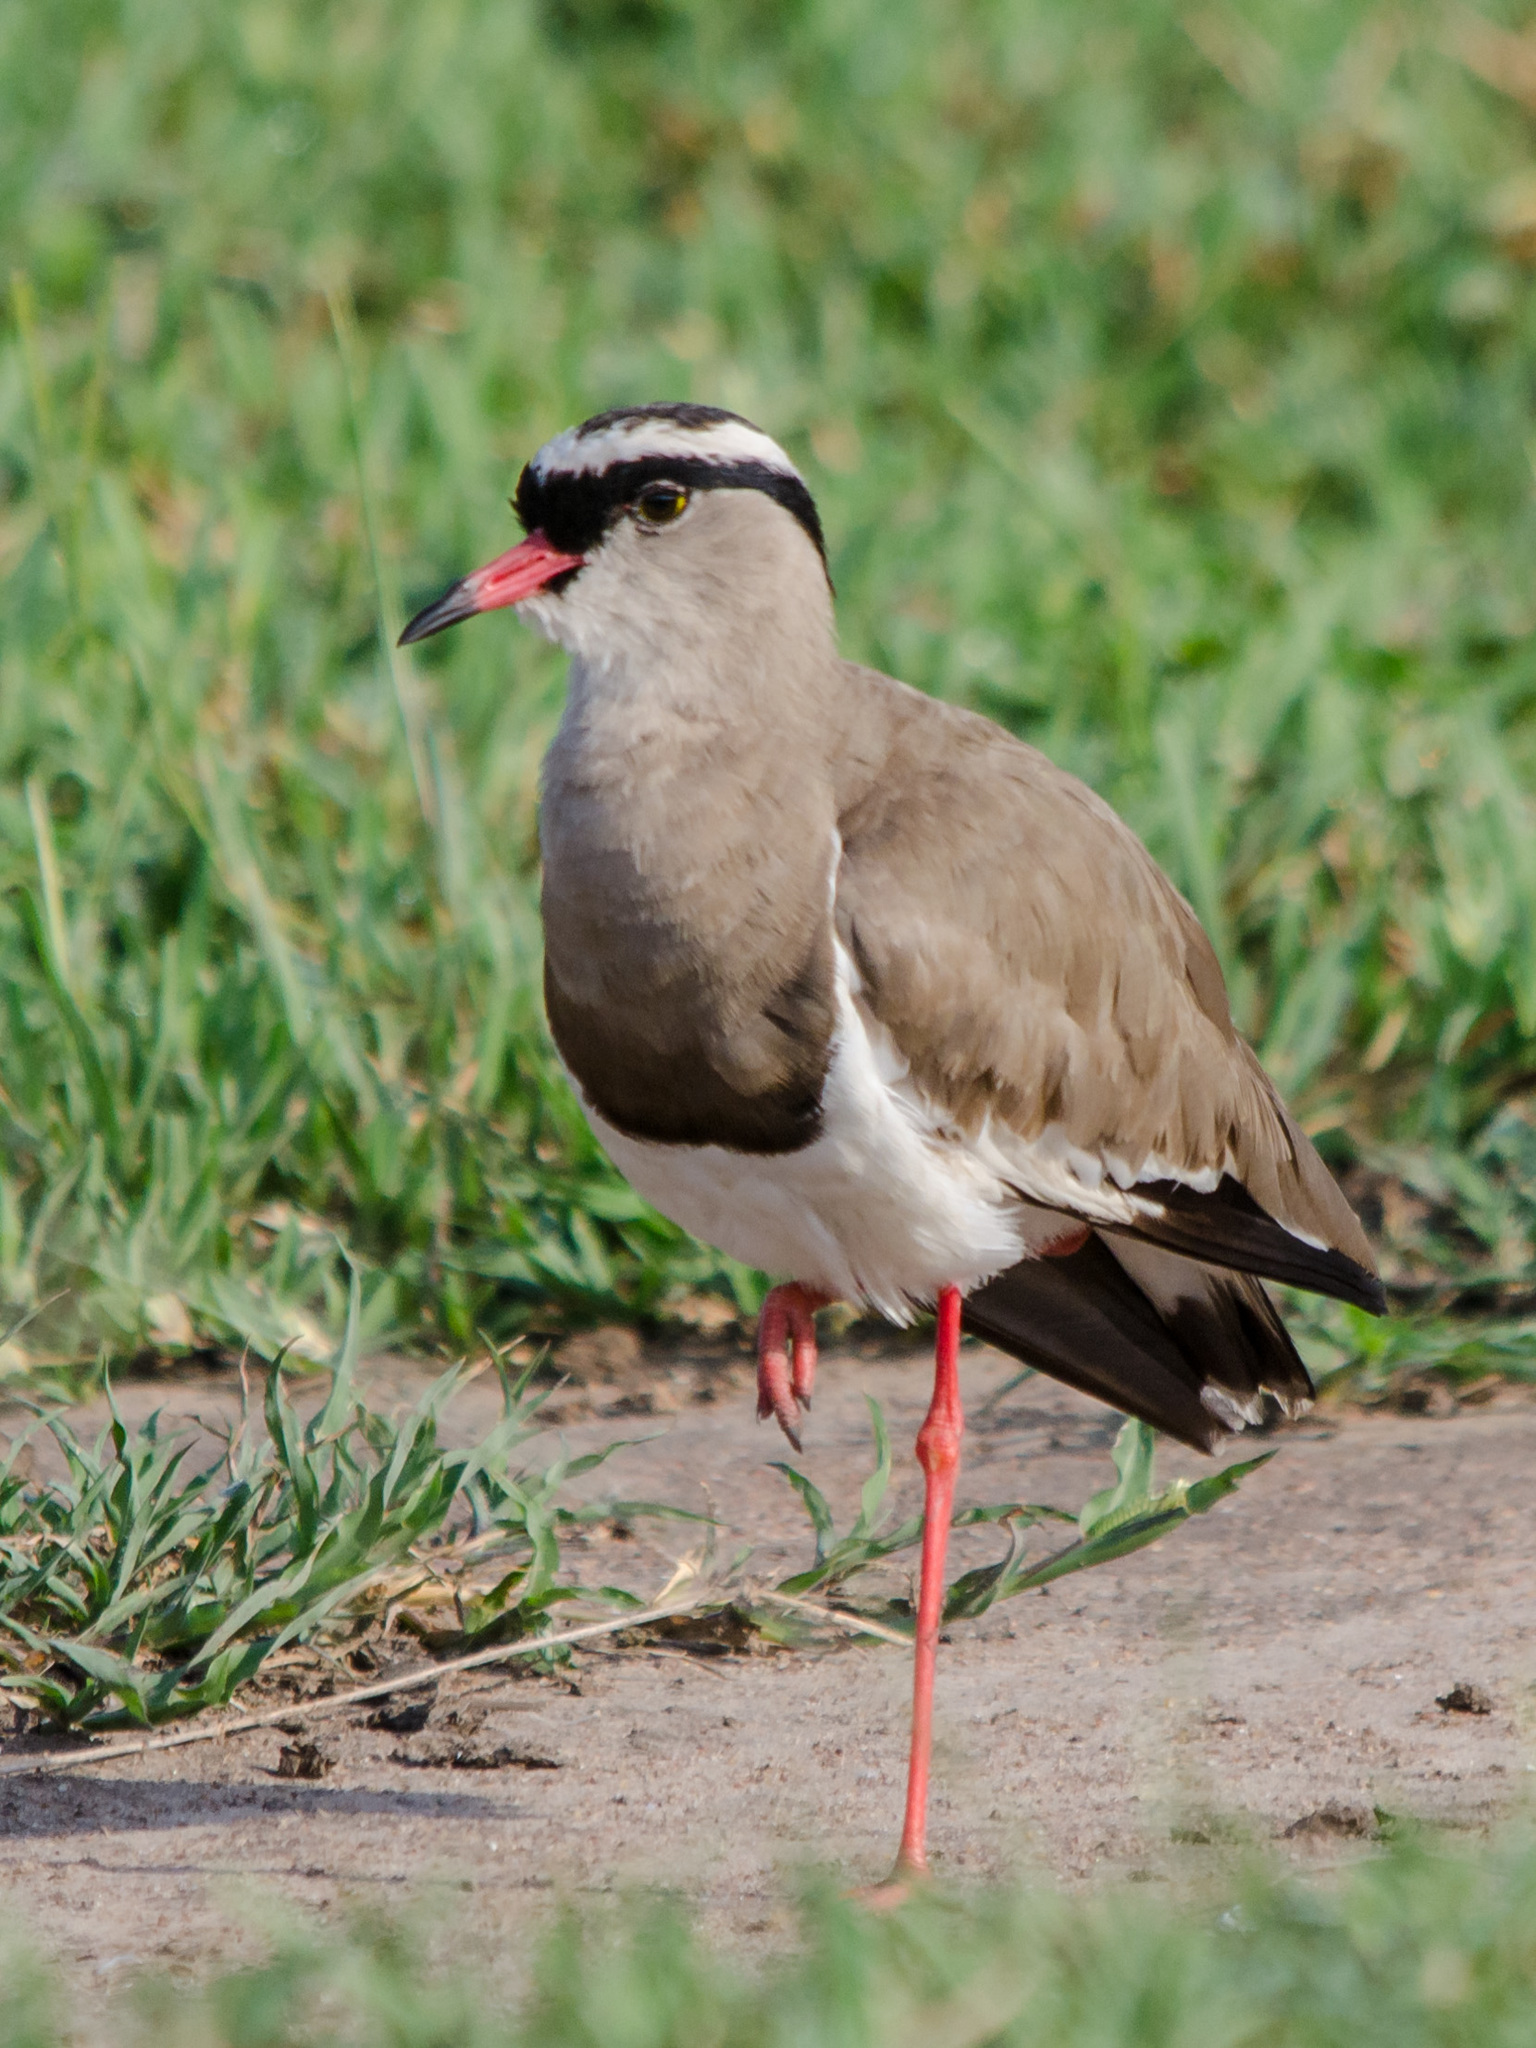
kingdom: Animalia
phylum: Chordata
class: Aves
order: Charadriiformes
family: Charadriidae
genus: Vanellus
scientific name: Vanellus coronatus
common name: Crowned lapwing
